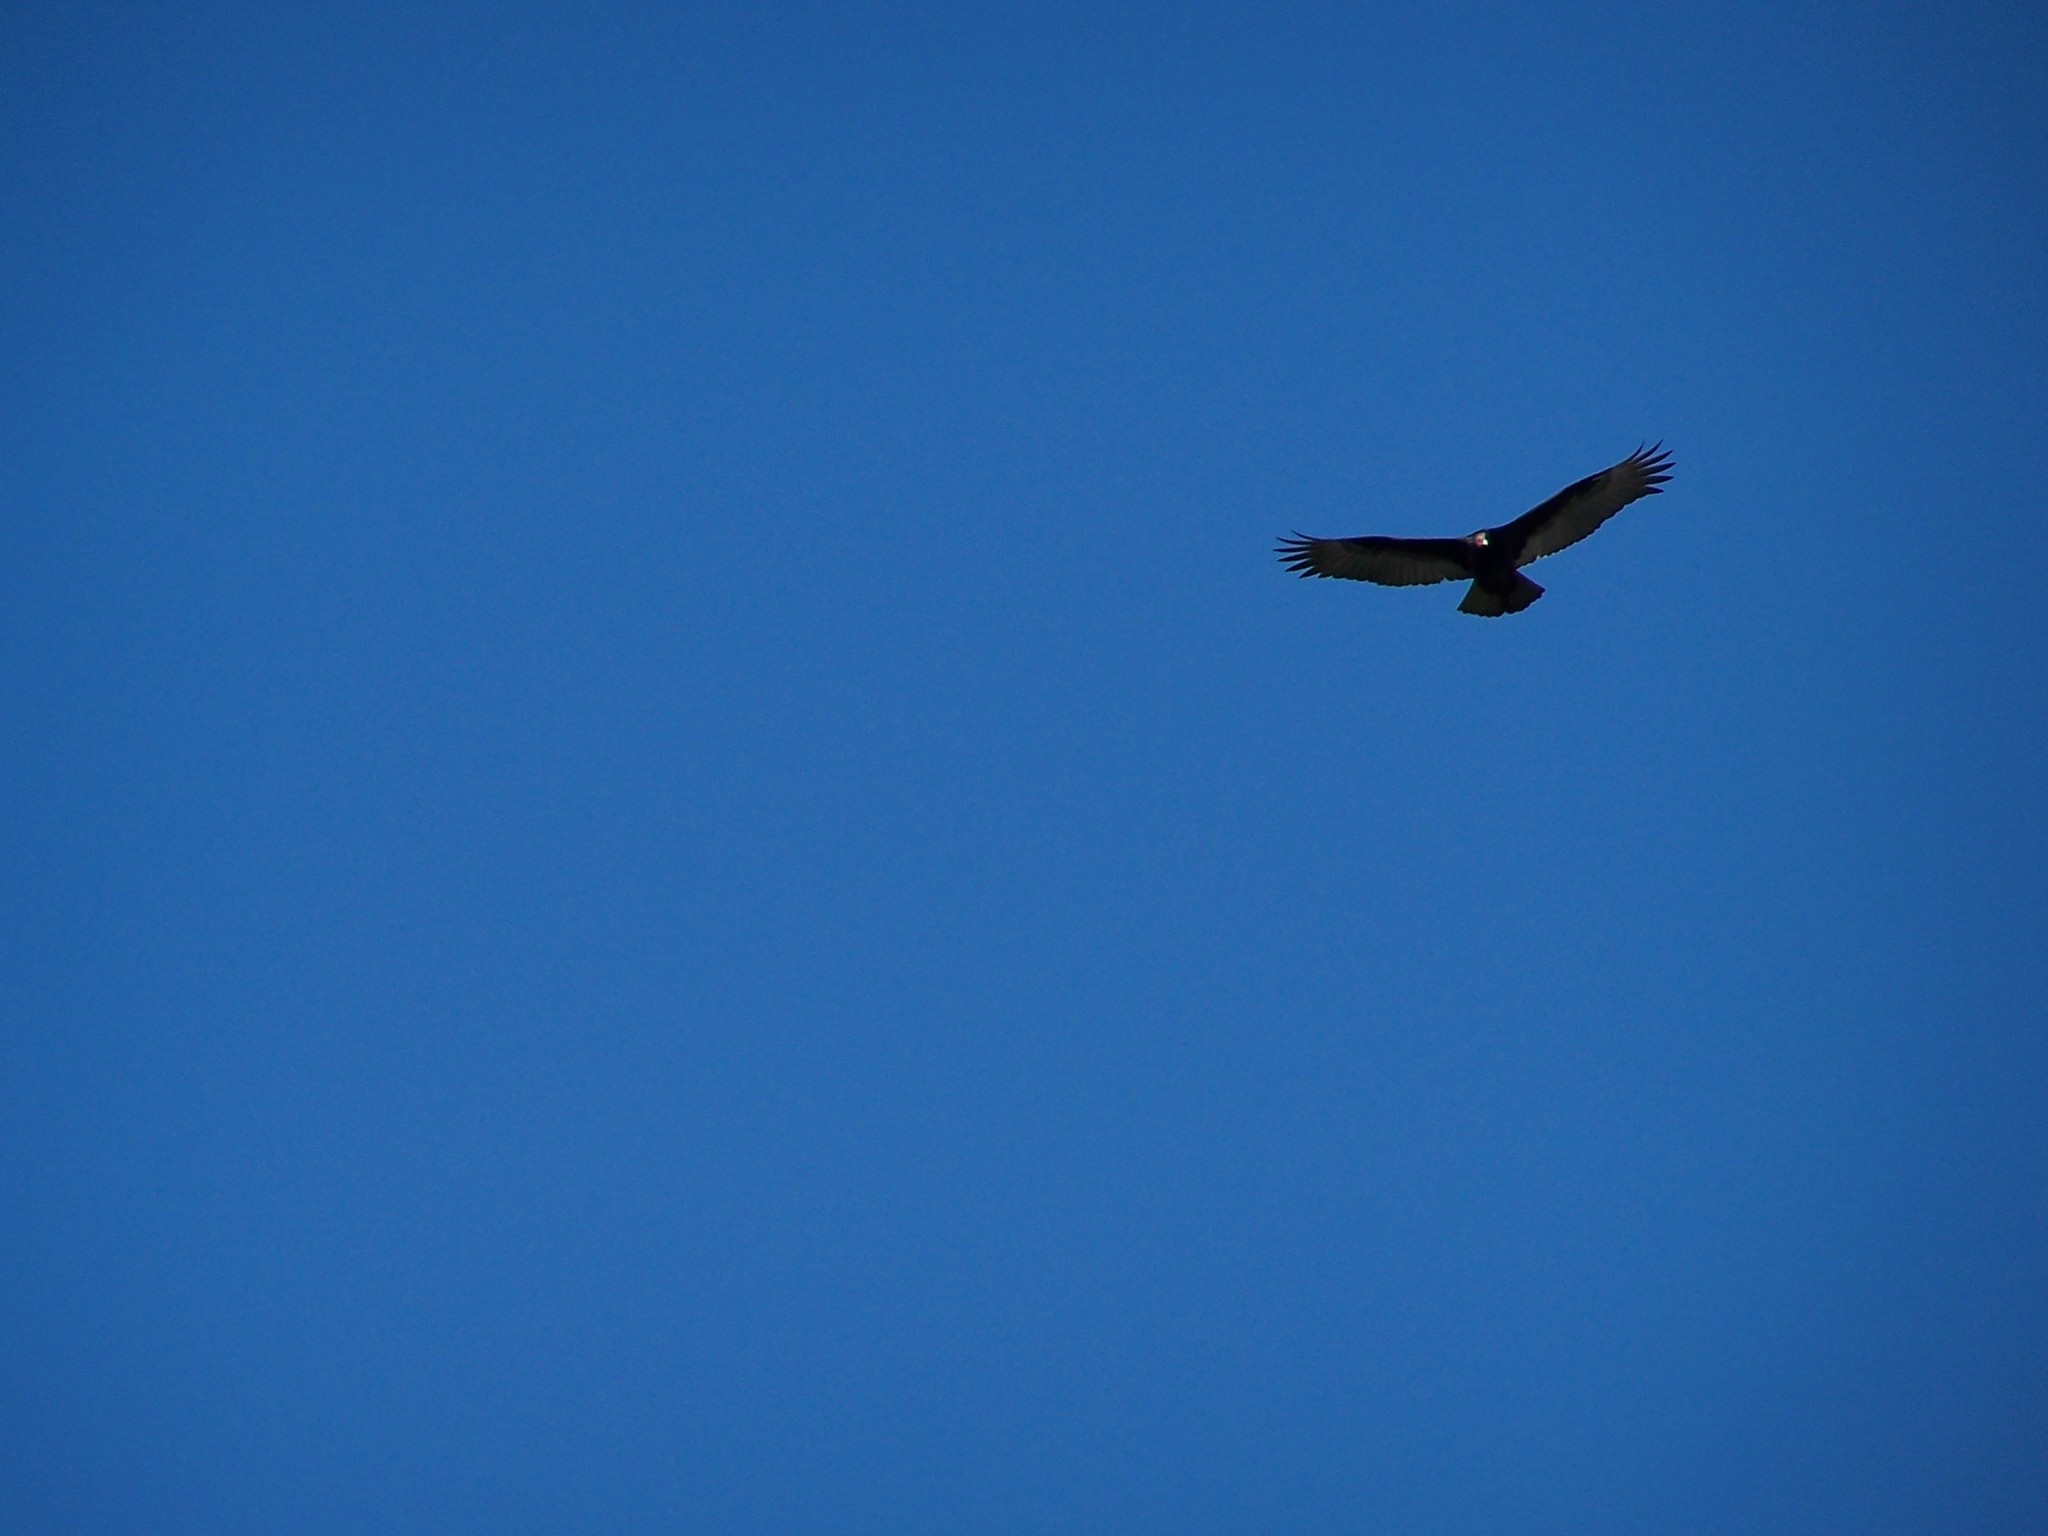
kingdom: Animalia
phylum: Chordata
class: Aves
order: Accipitriformes
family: Cathartidae
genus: Cathartes
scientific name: Cathartes aura
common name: Turkey vulture
